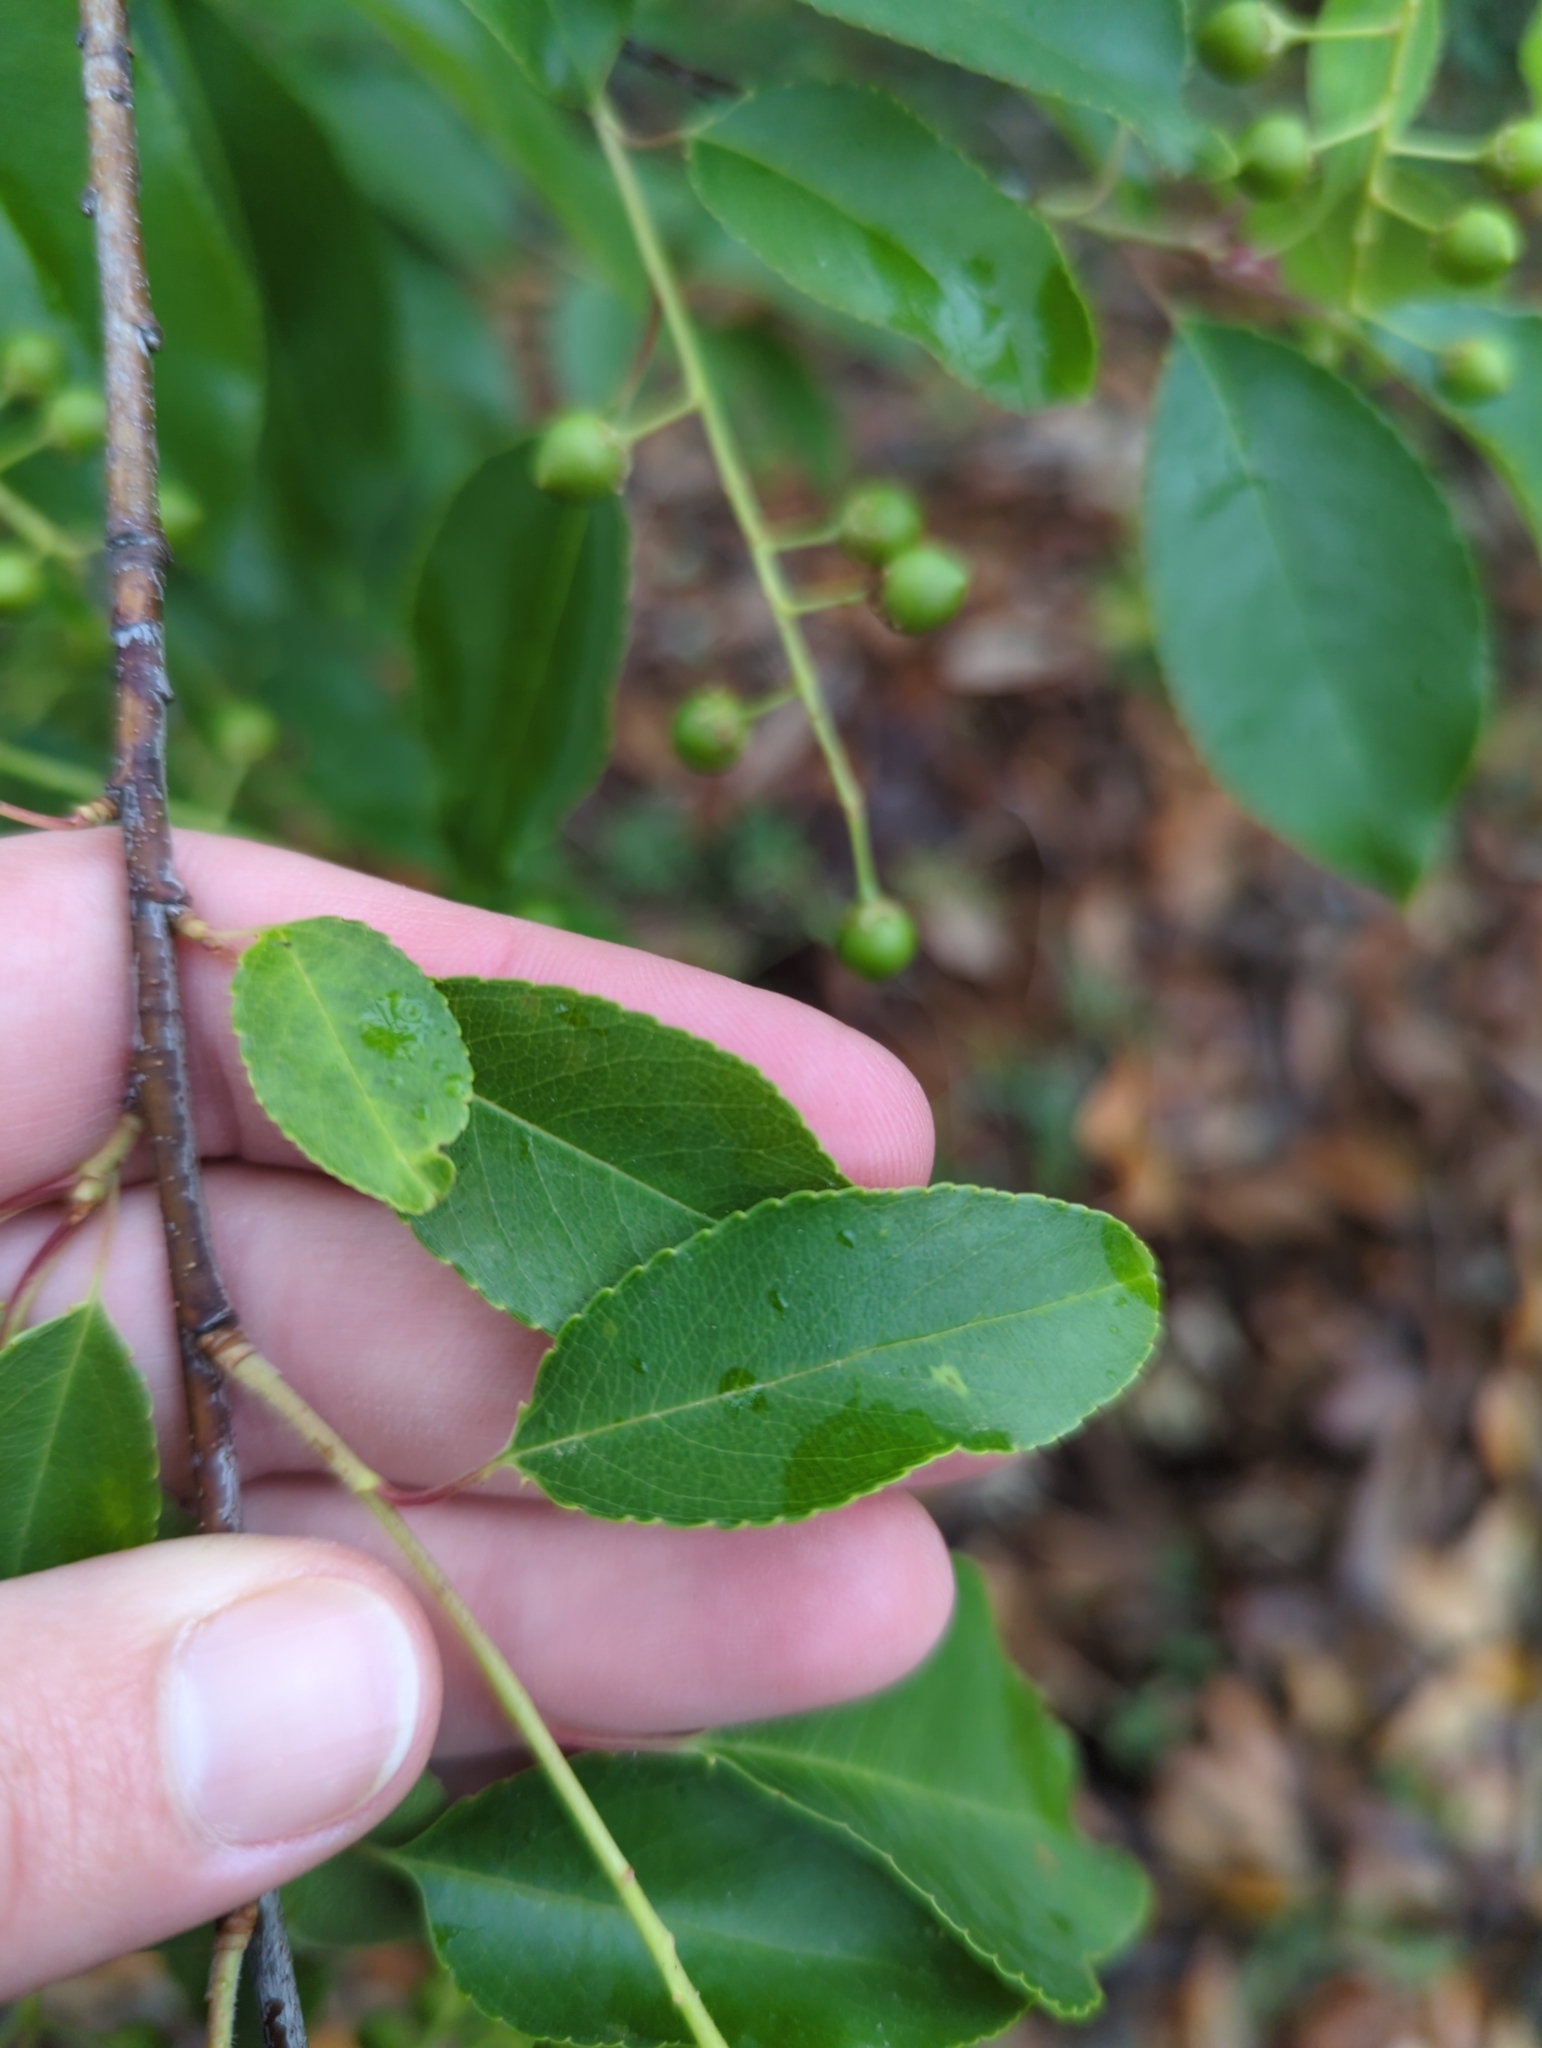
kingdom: Plantae
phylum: Tracheophyta
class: Magnoliopsida
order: Rosales
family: Rosaceae
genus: Prunus
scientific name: Prunus serotina
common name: Black cherry
